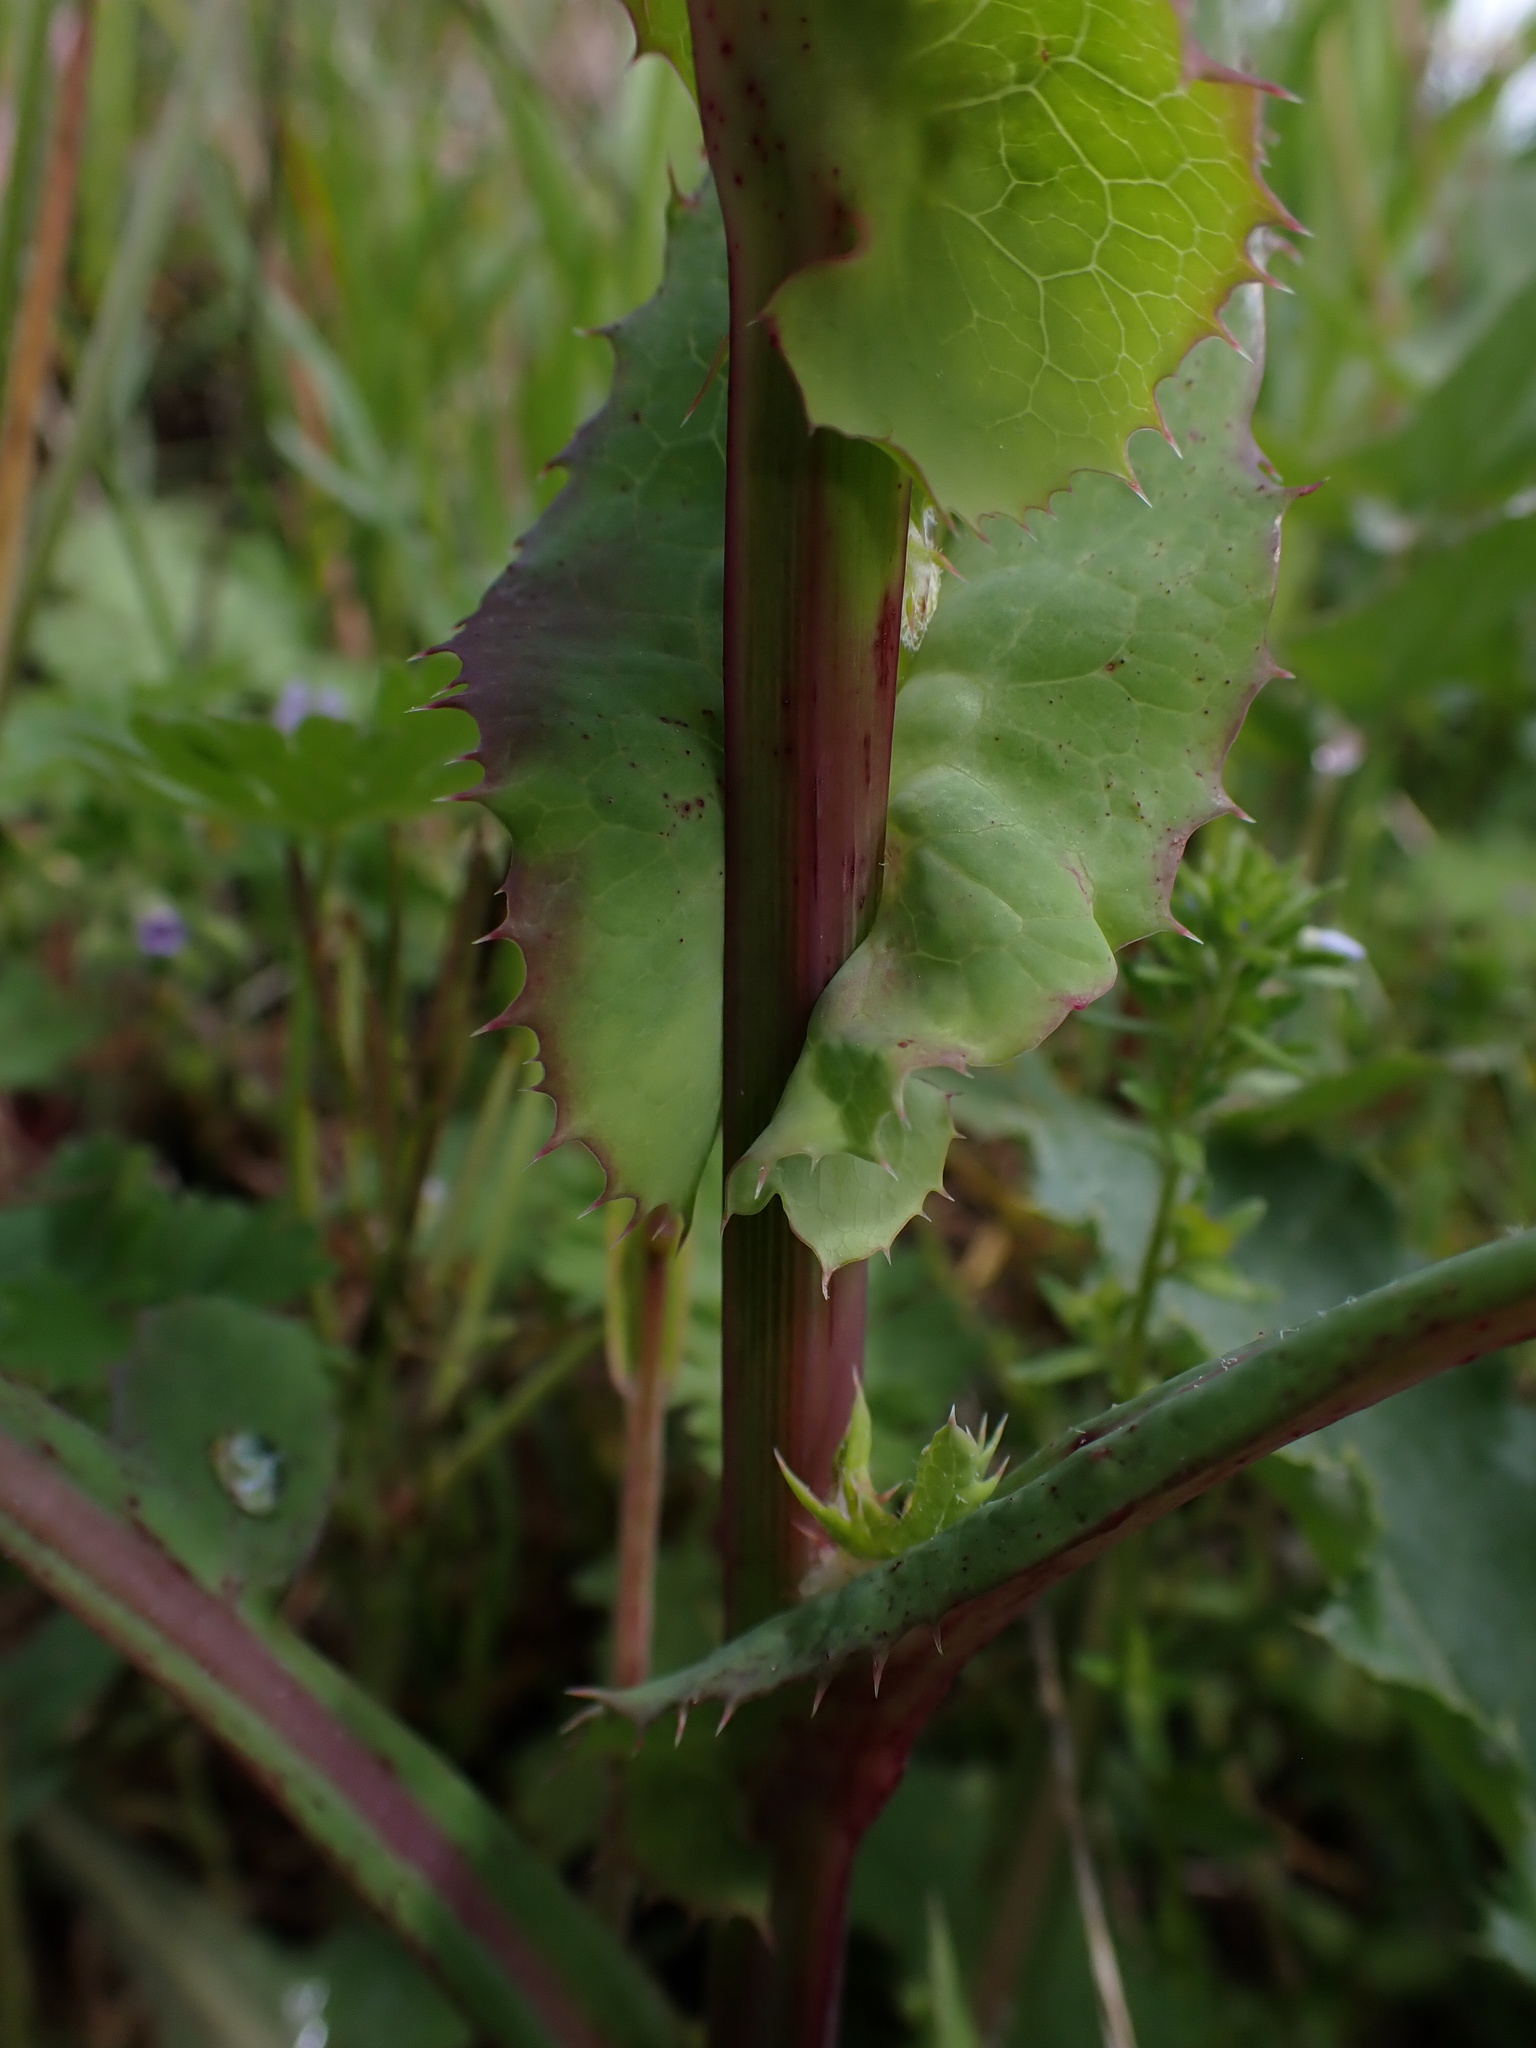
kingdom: Plantae
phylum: Tracheophyta
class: Magnoliopsida
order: Asterales
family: Asteraceae
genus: Sonchus
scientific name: Sonchus oleraceus
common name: Common sowthistle
